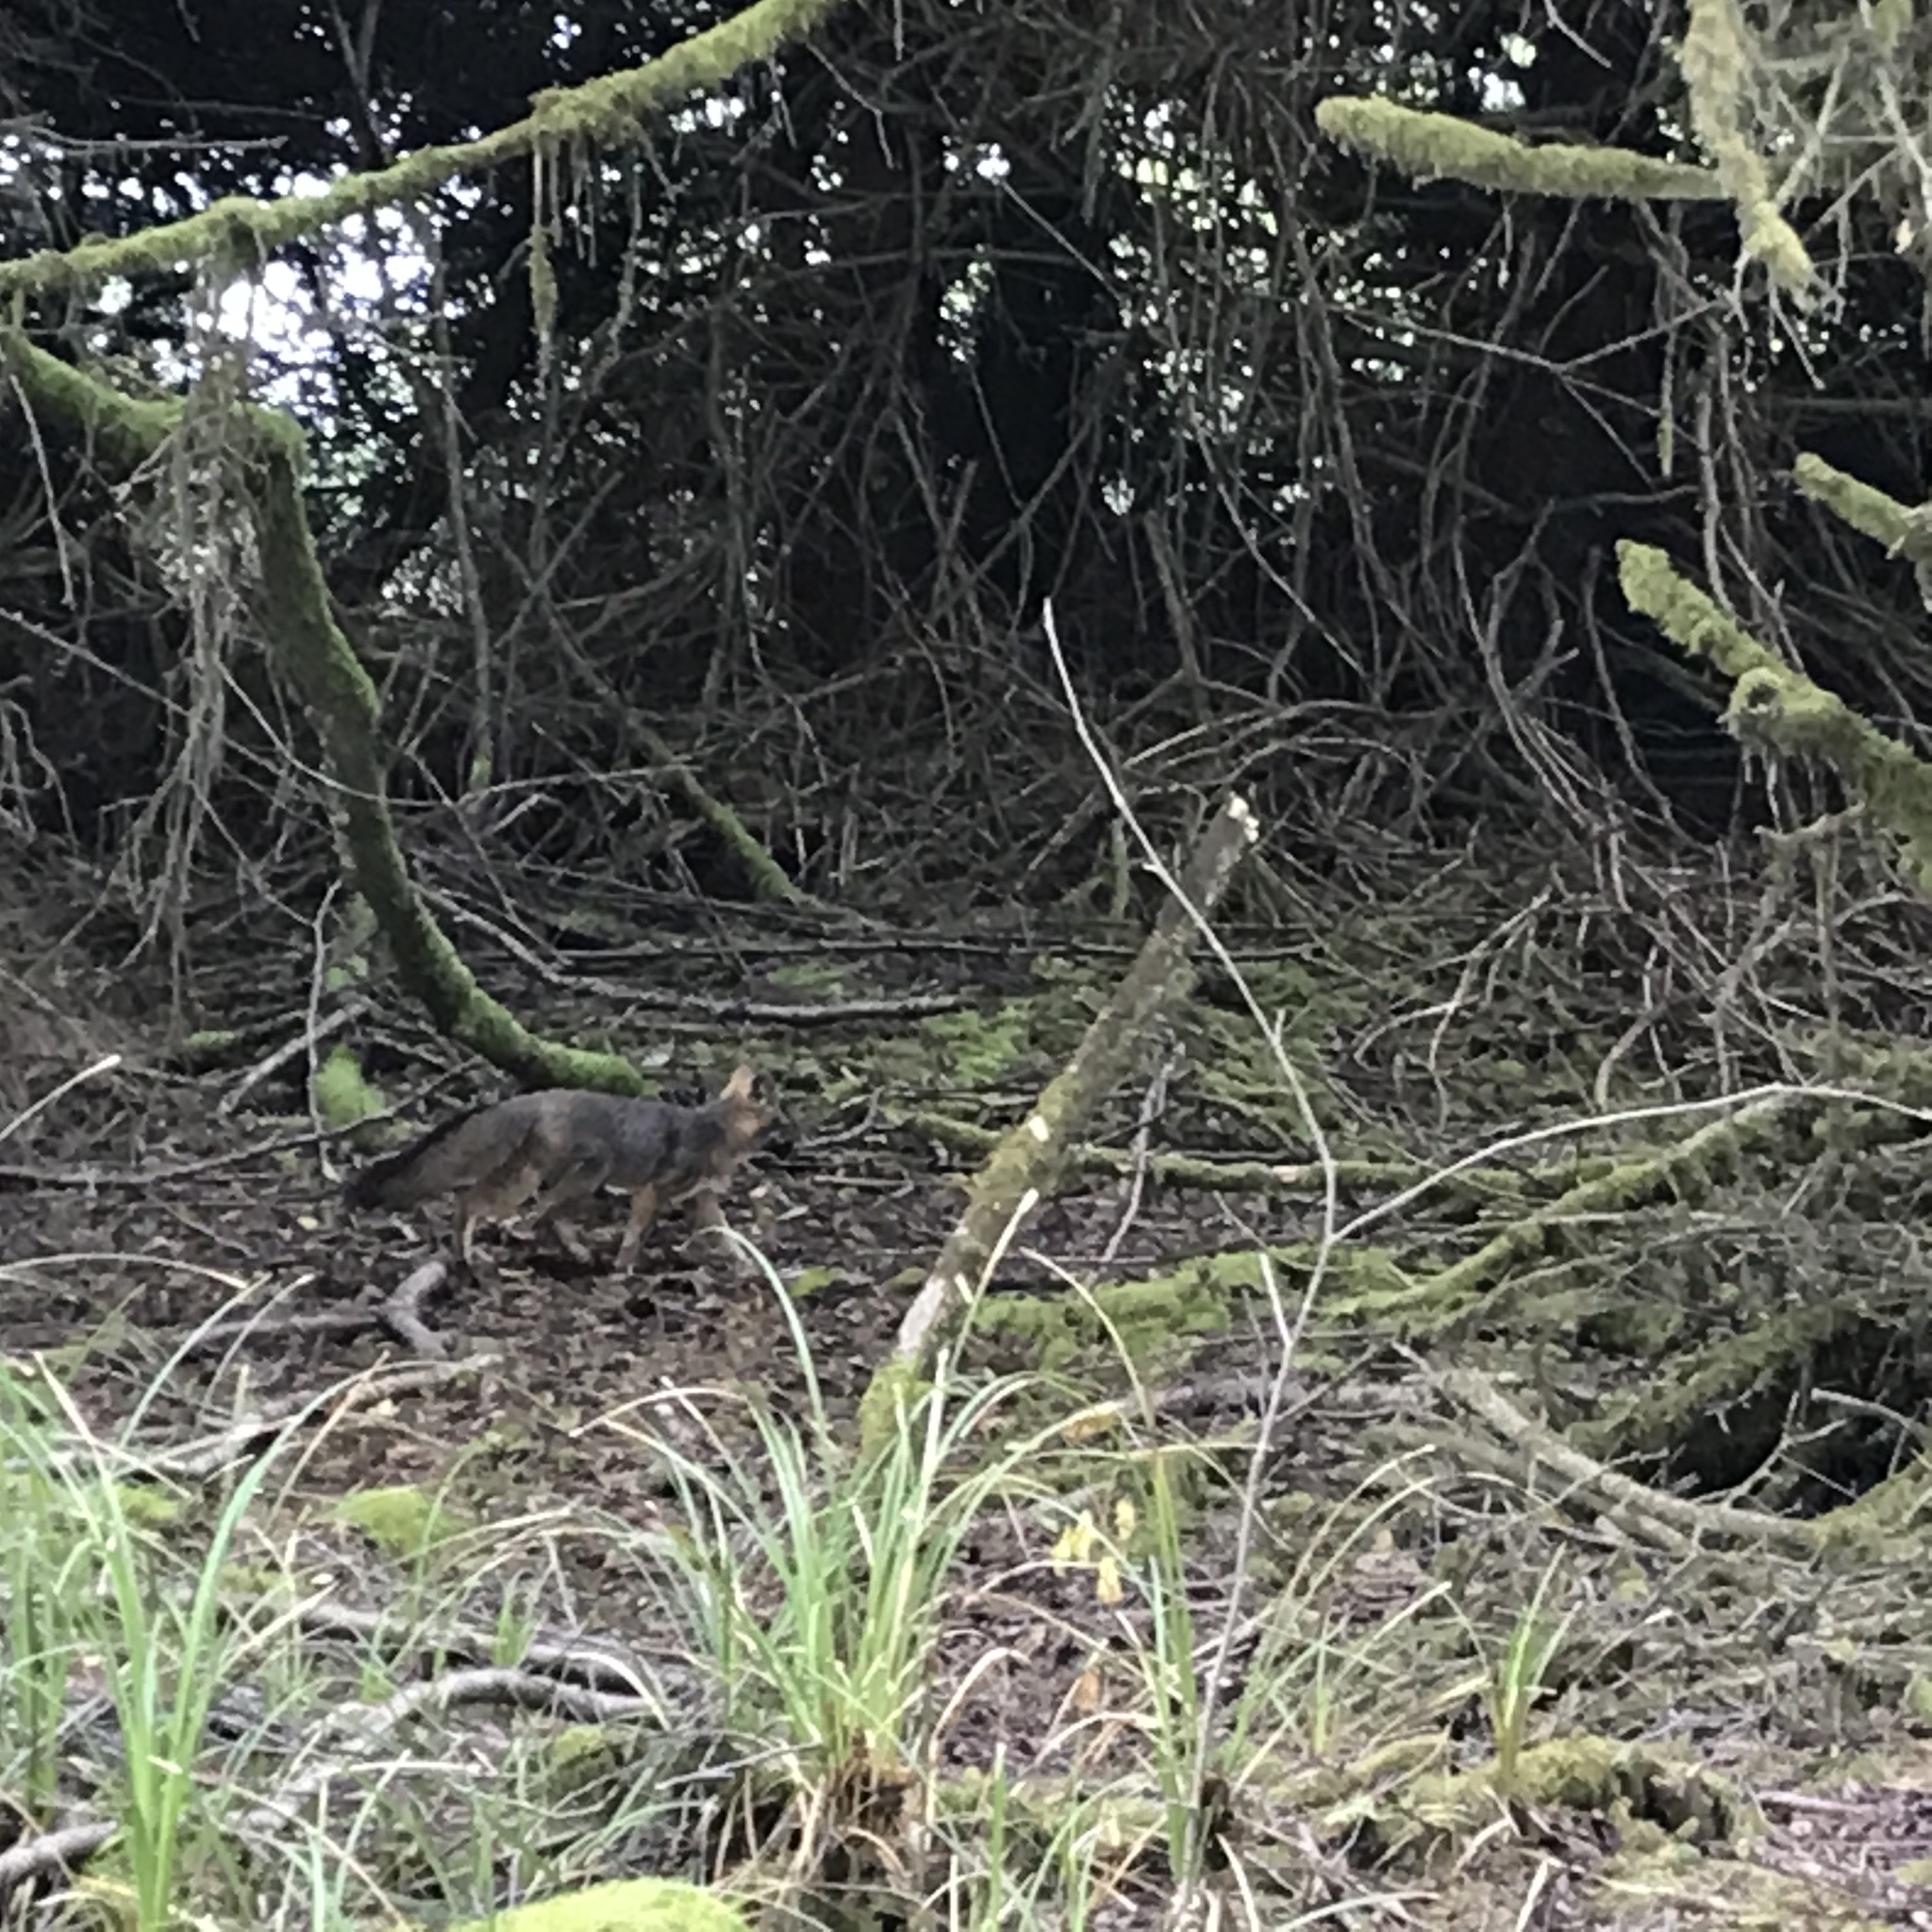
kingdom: Animalia
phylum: Chordata
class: Mammalia
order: Carnivora
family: Canidae
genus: Urocyon
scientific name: Urocyon cinereoargenteus
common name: Gray fox
